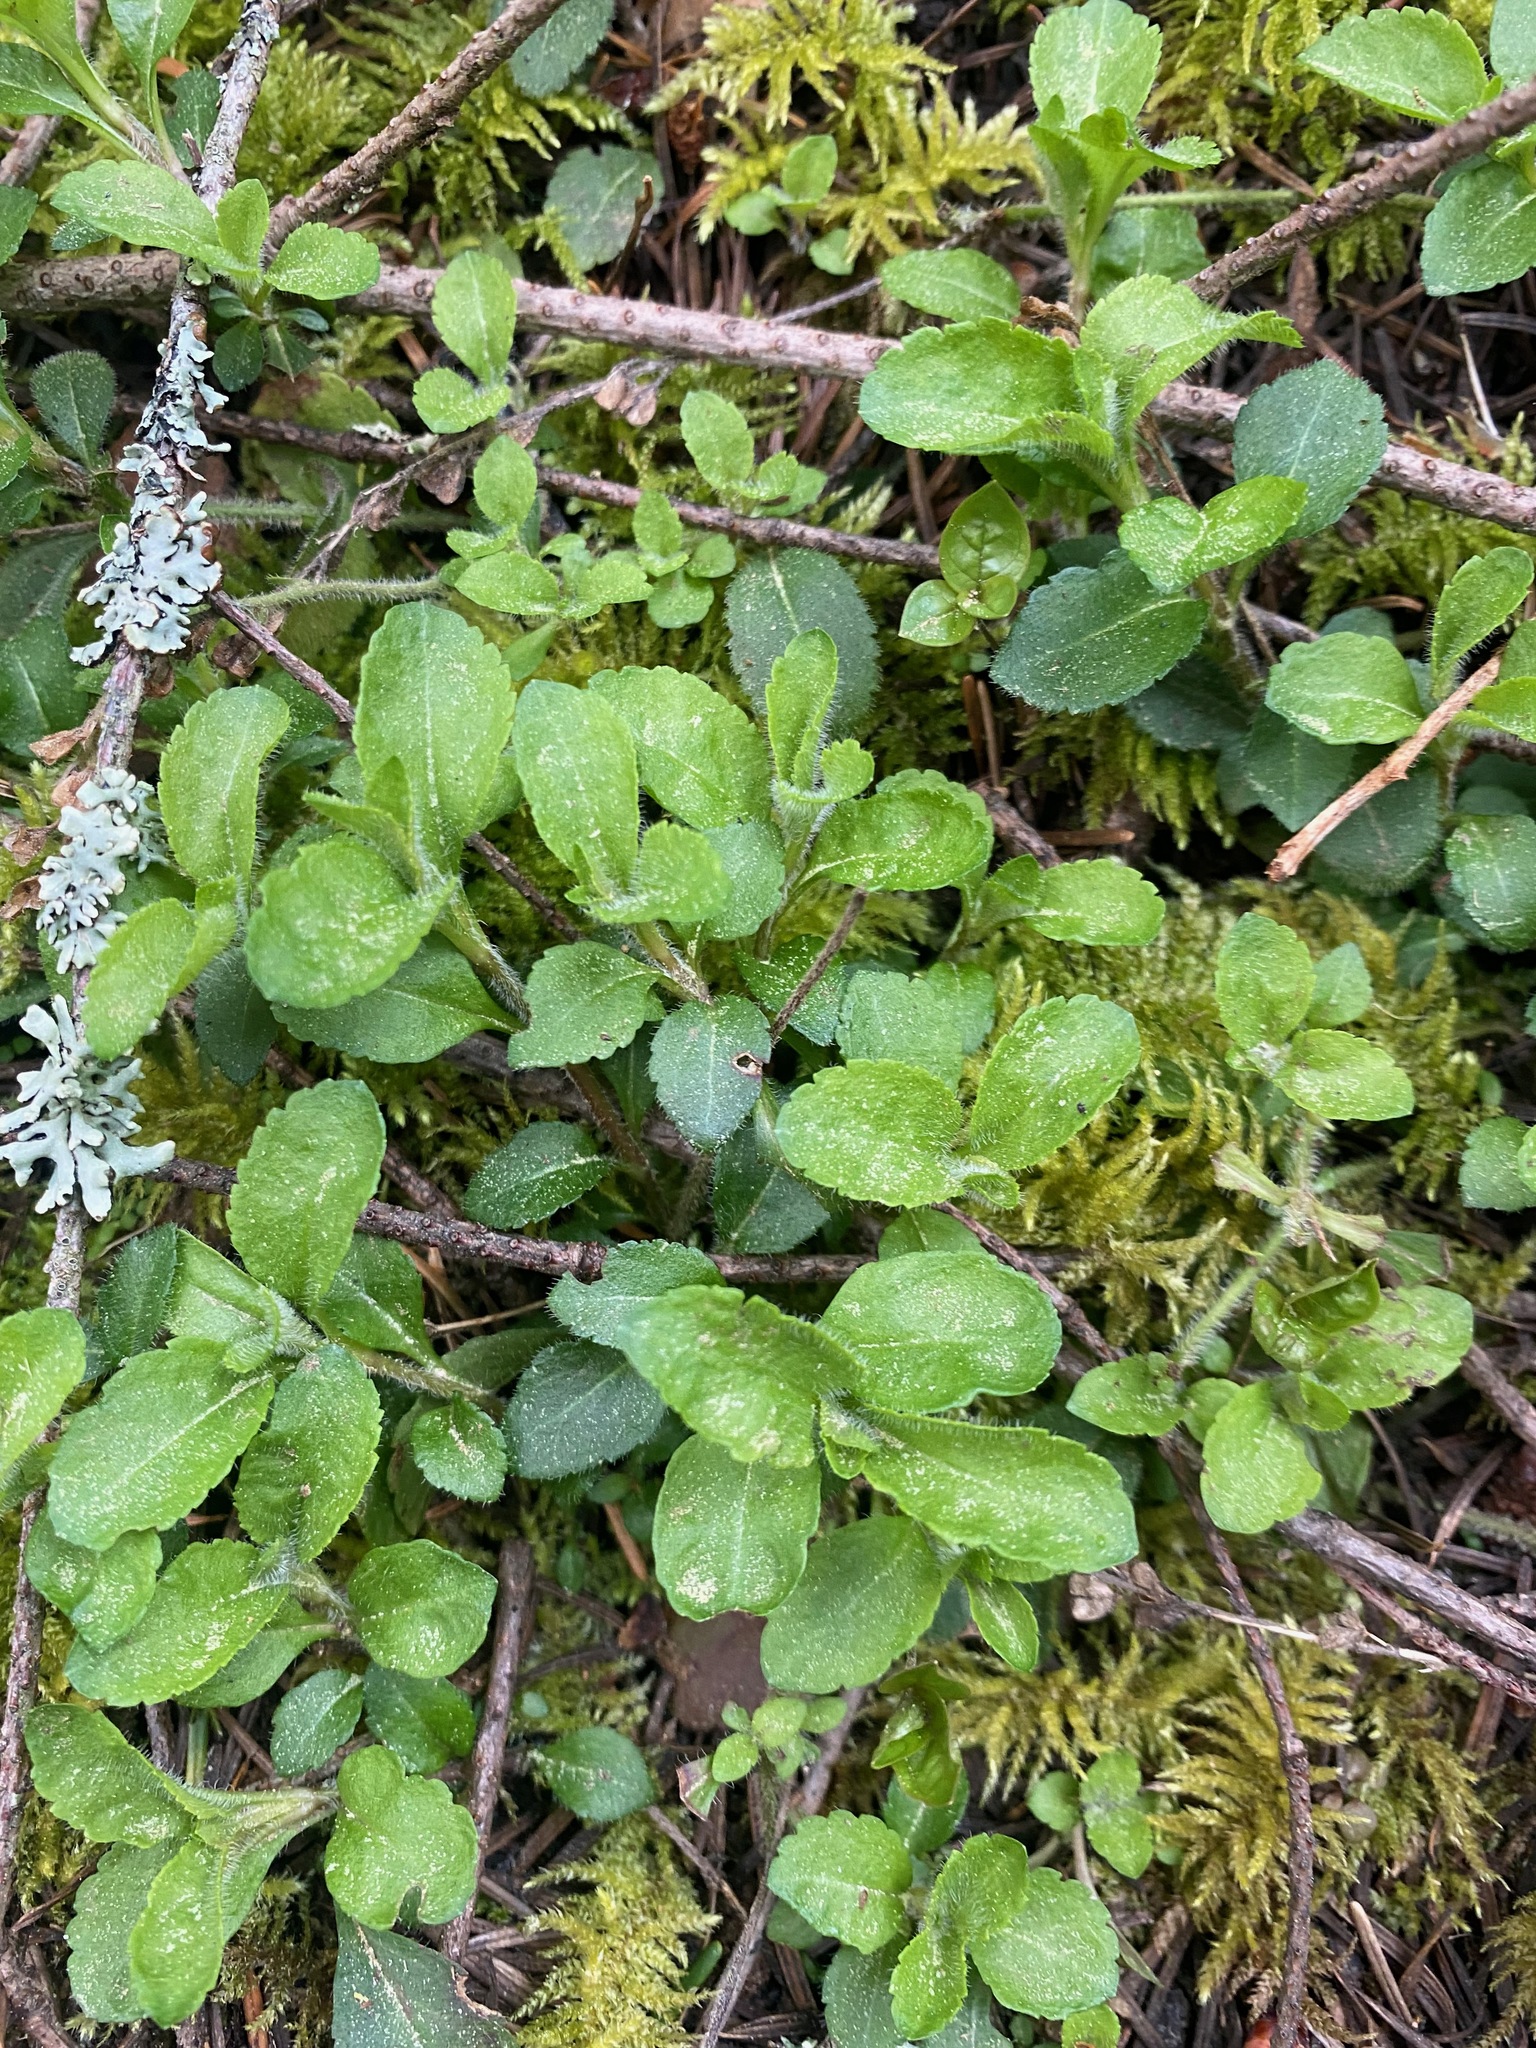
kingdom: Plantae
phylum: Tracheophyta
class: Magnoliopsida
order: Lamiales
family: Plantaginaceae
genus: Veronica
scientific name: Veronica officinalis
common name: Common speedwell
